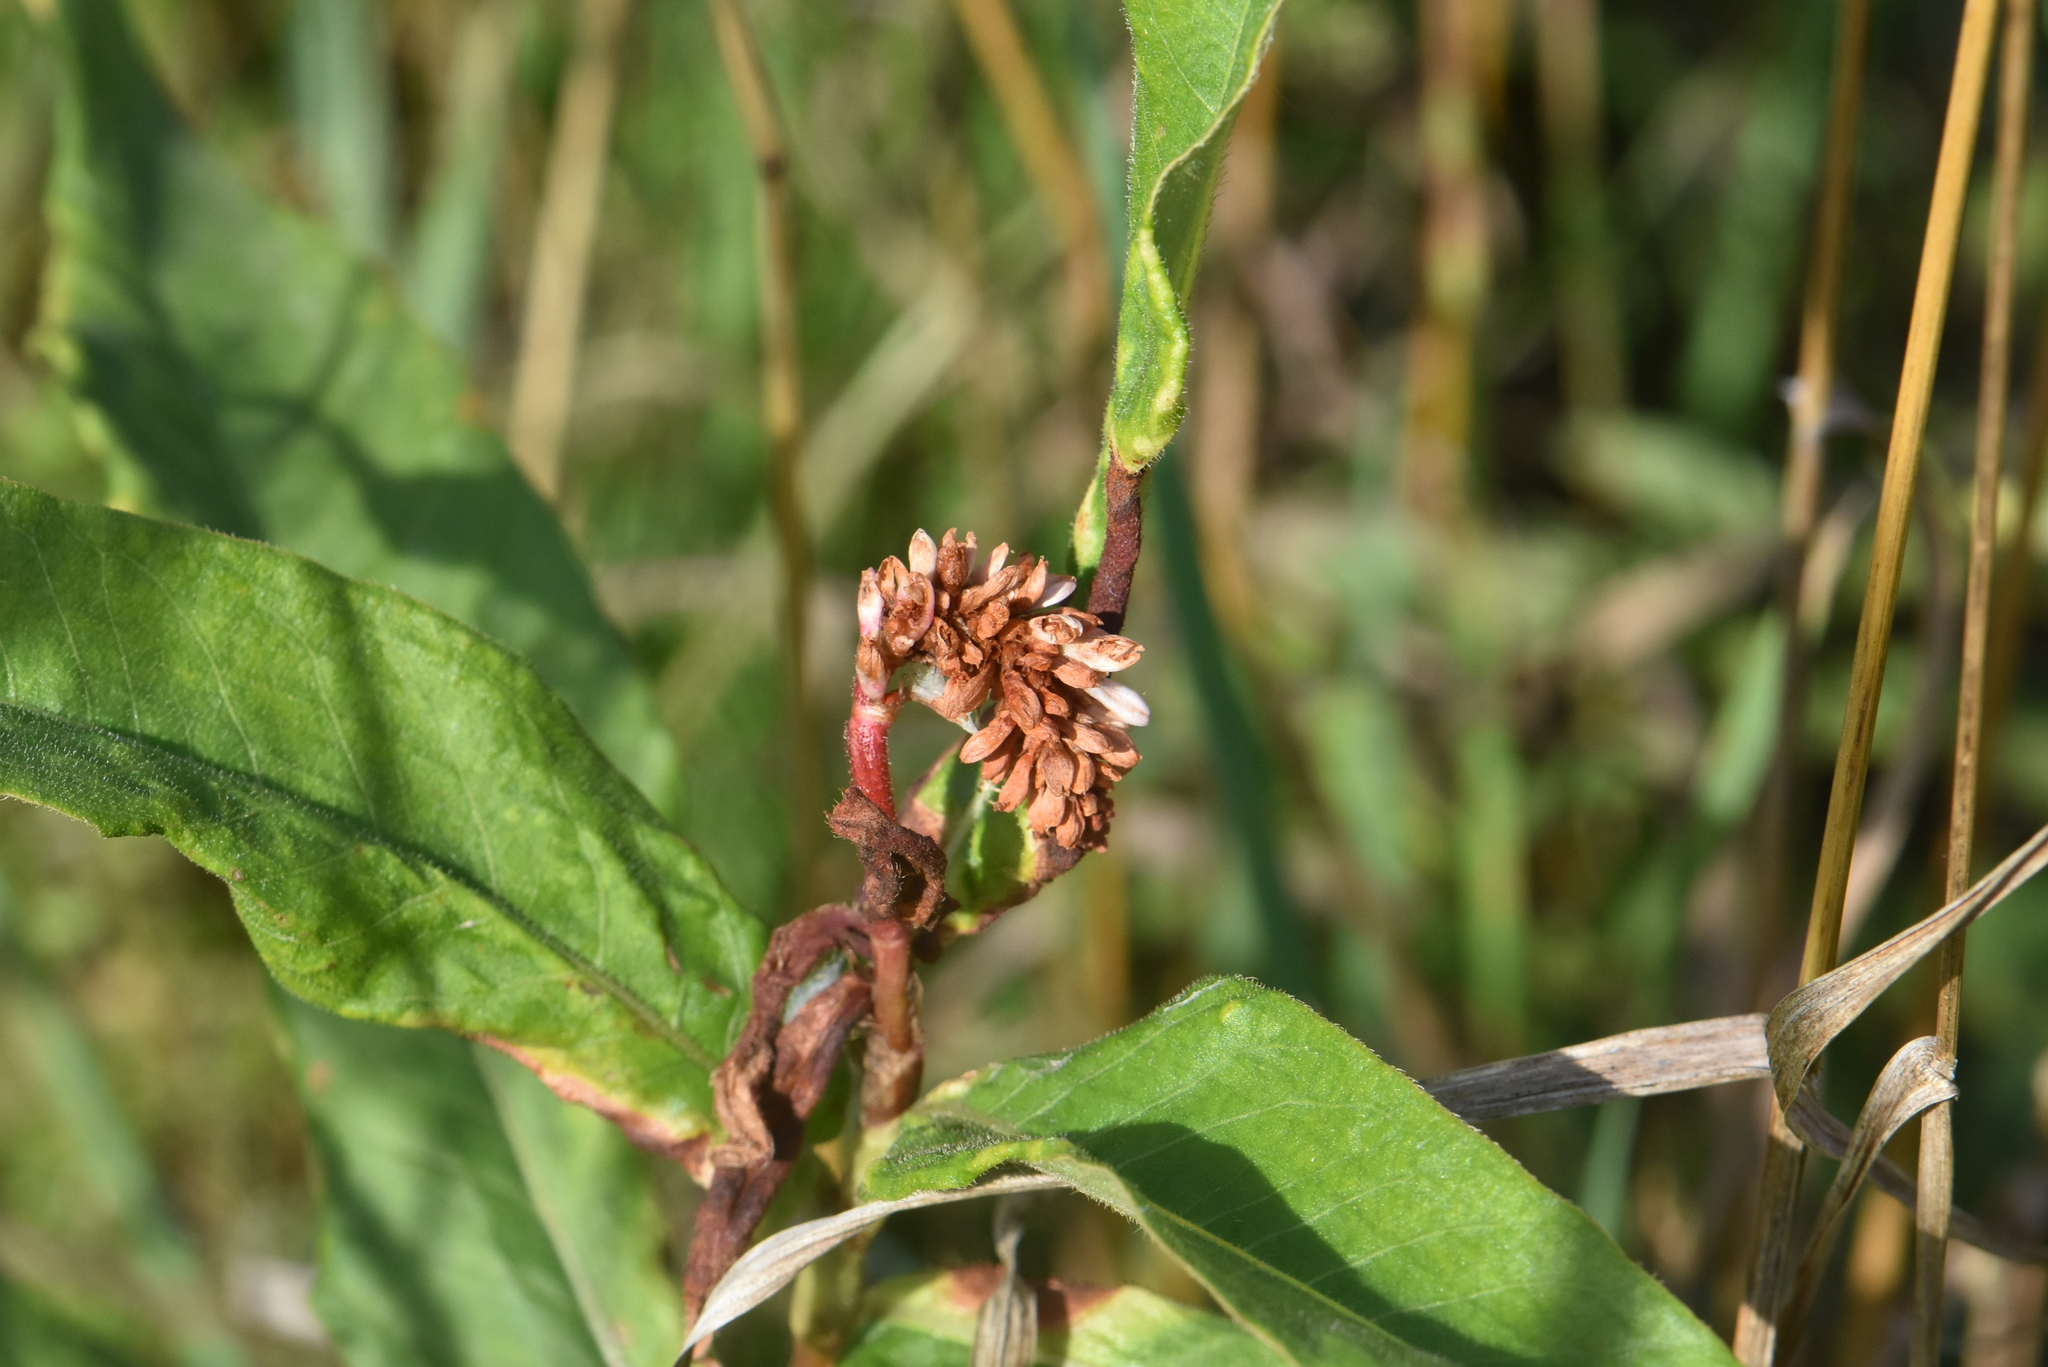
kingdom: Plantae
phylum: Tracheophyta
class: Magnoliopsida
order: Caryophyllales
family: Polygonaceae
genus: Persicaria
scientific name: Persicaria amphibia
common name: Amphibious bistort
